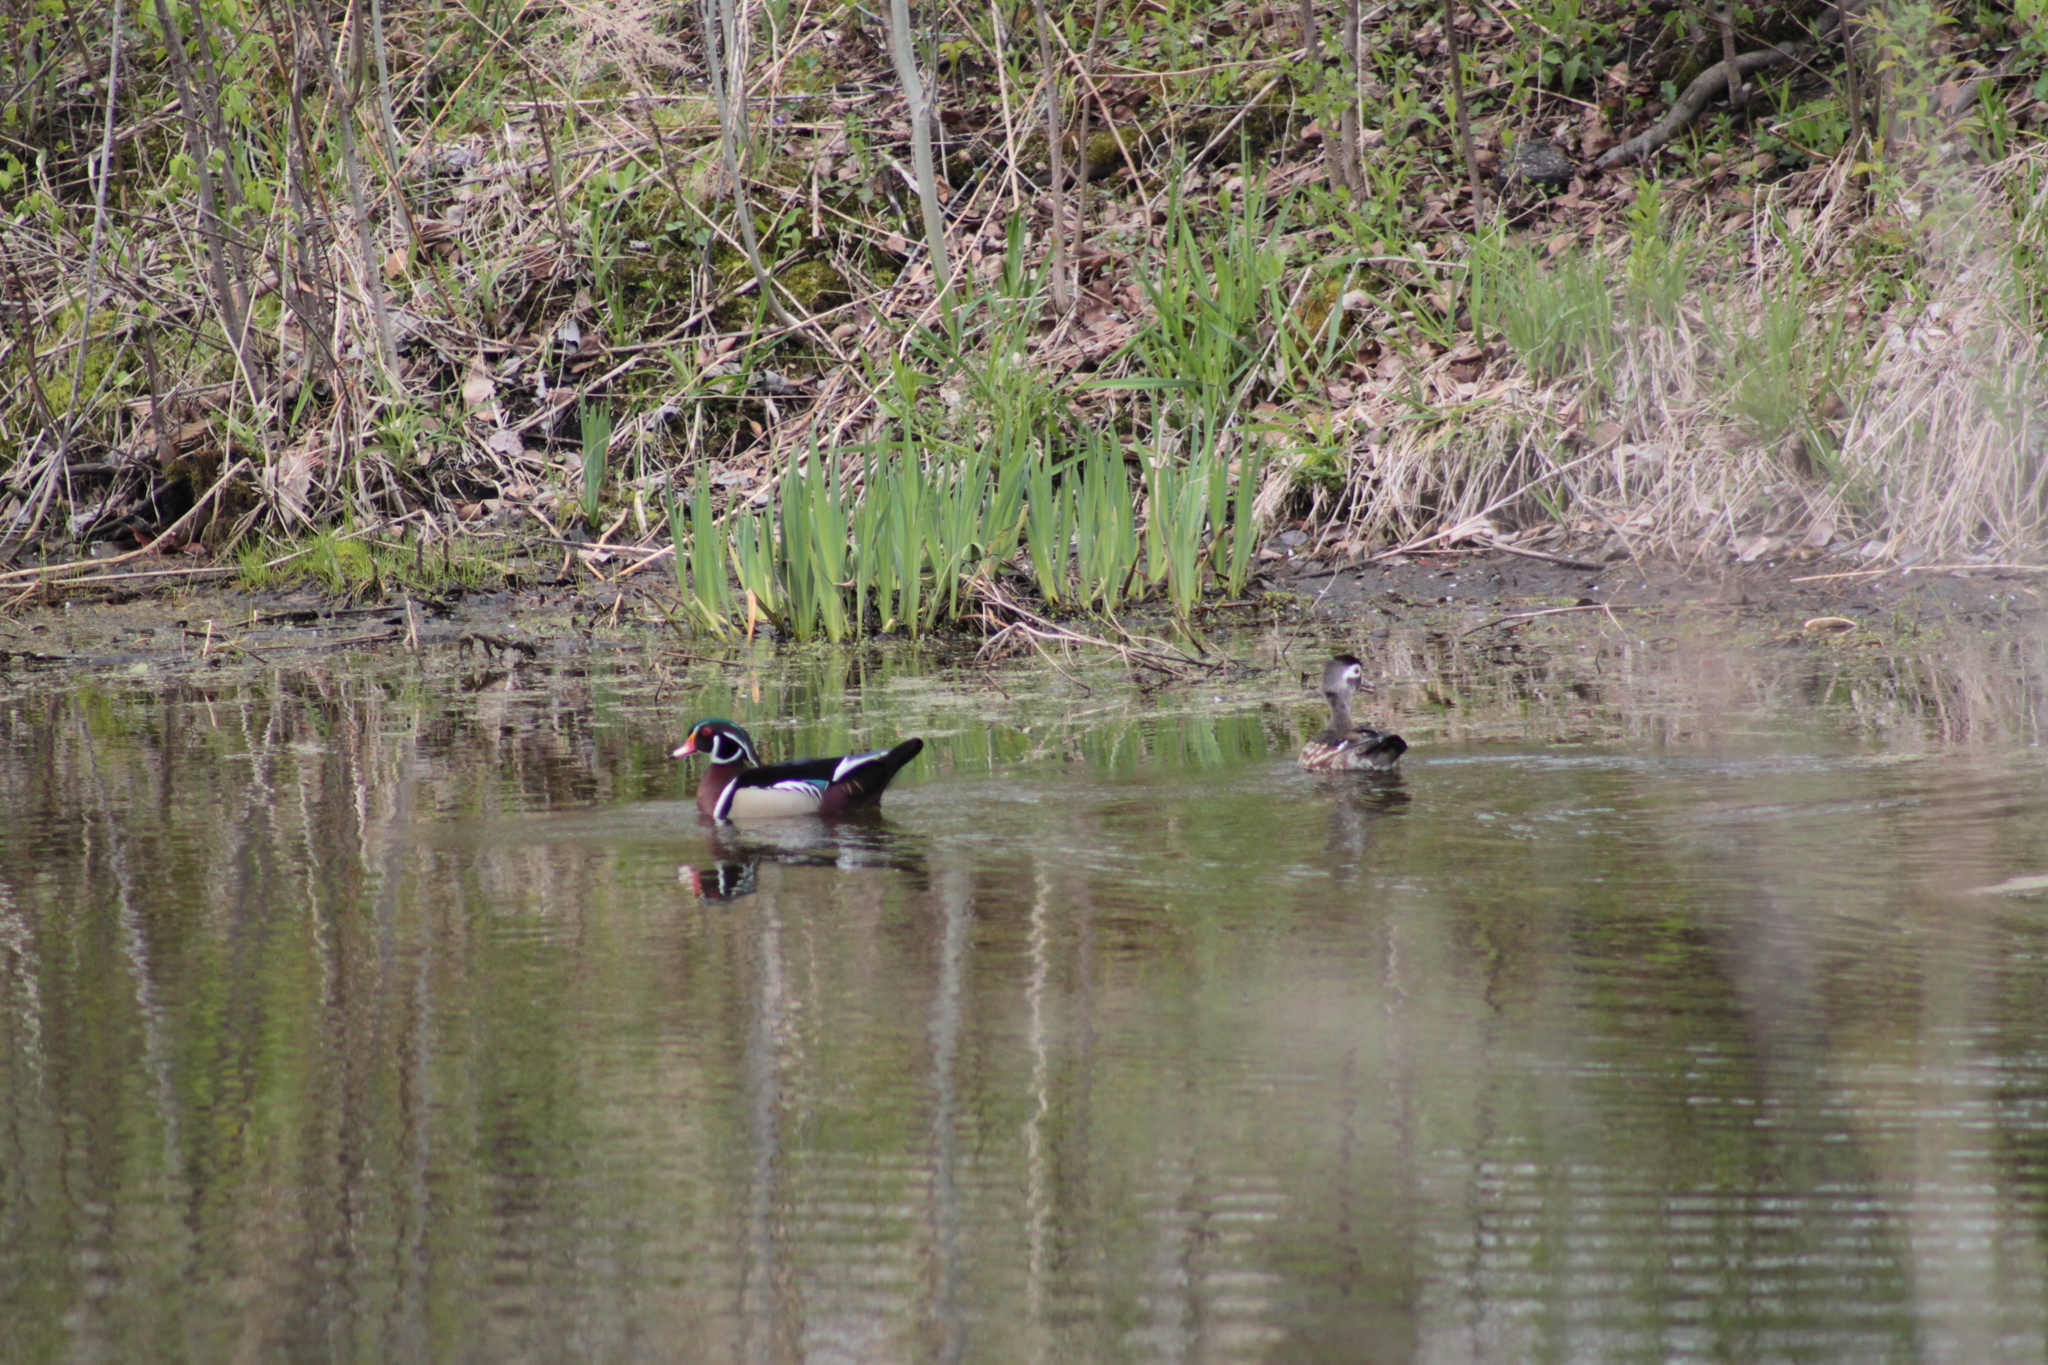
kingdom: Animalia
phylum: Chordata
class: Aves
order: Anseriformes
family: Anatidae
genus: Aix
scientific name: Aix sponsa
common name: Wood duck
